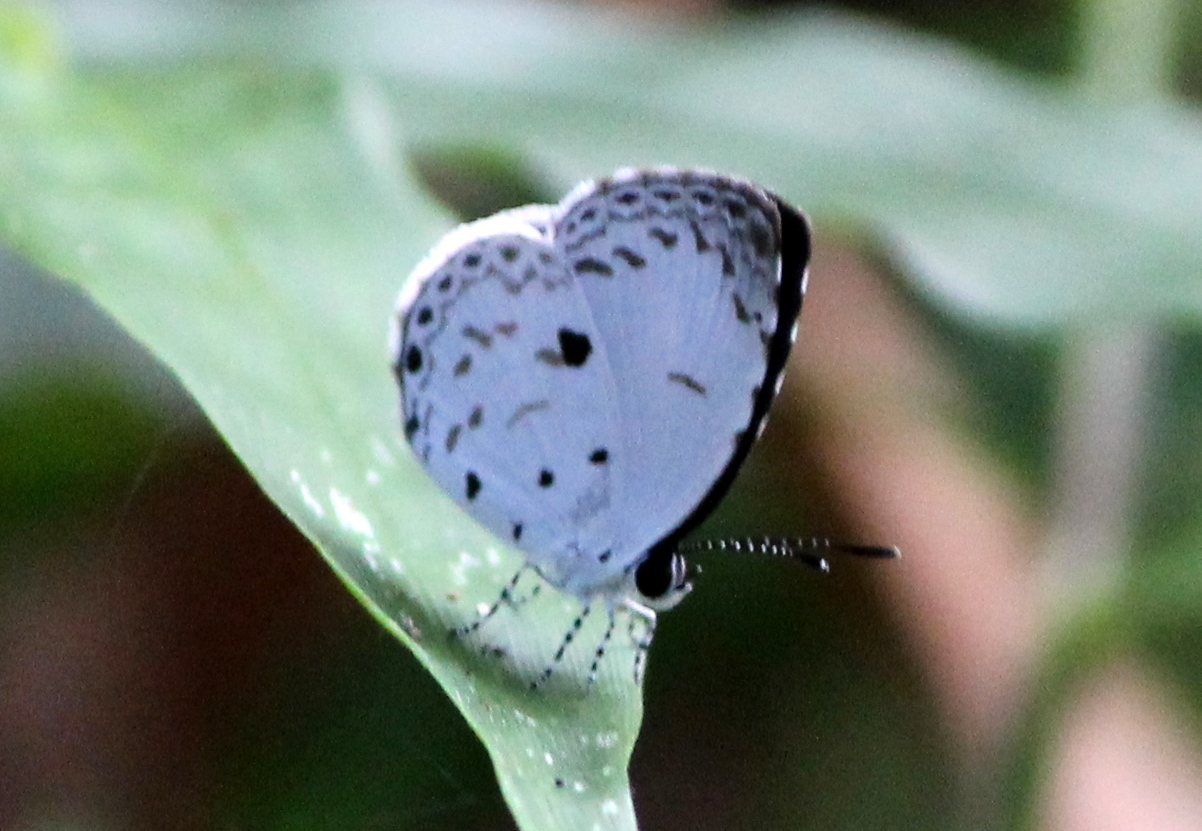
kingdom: Animalia
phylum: Arthropoda
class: Insecta
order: Lepidoptera
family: Lycaenidae
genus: Neopithecops
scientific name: Neopithecops zalmora
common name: Quaker
